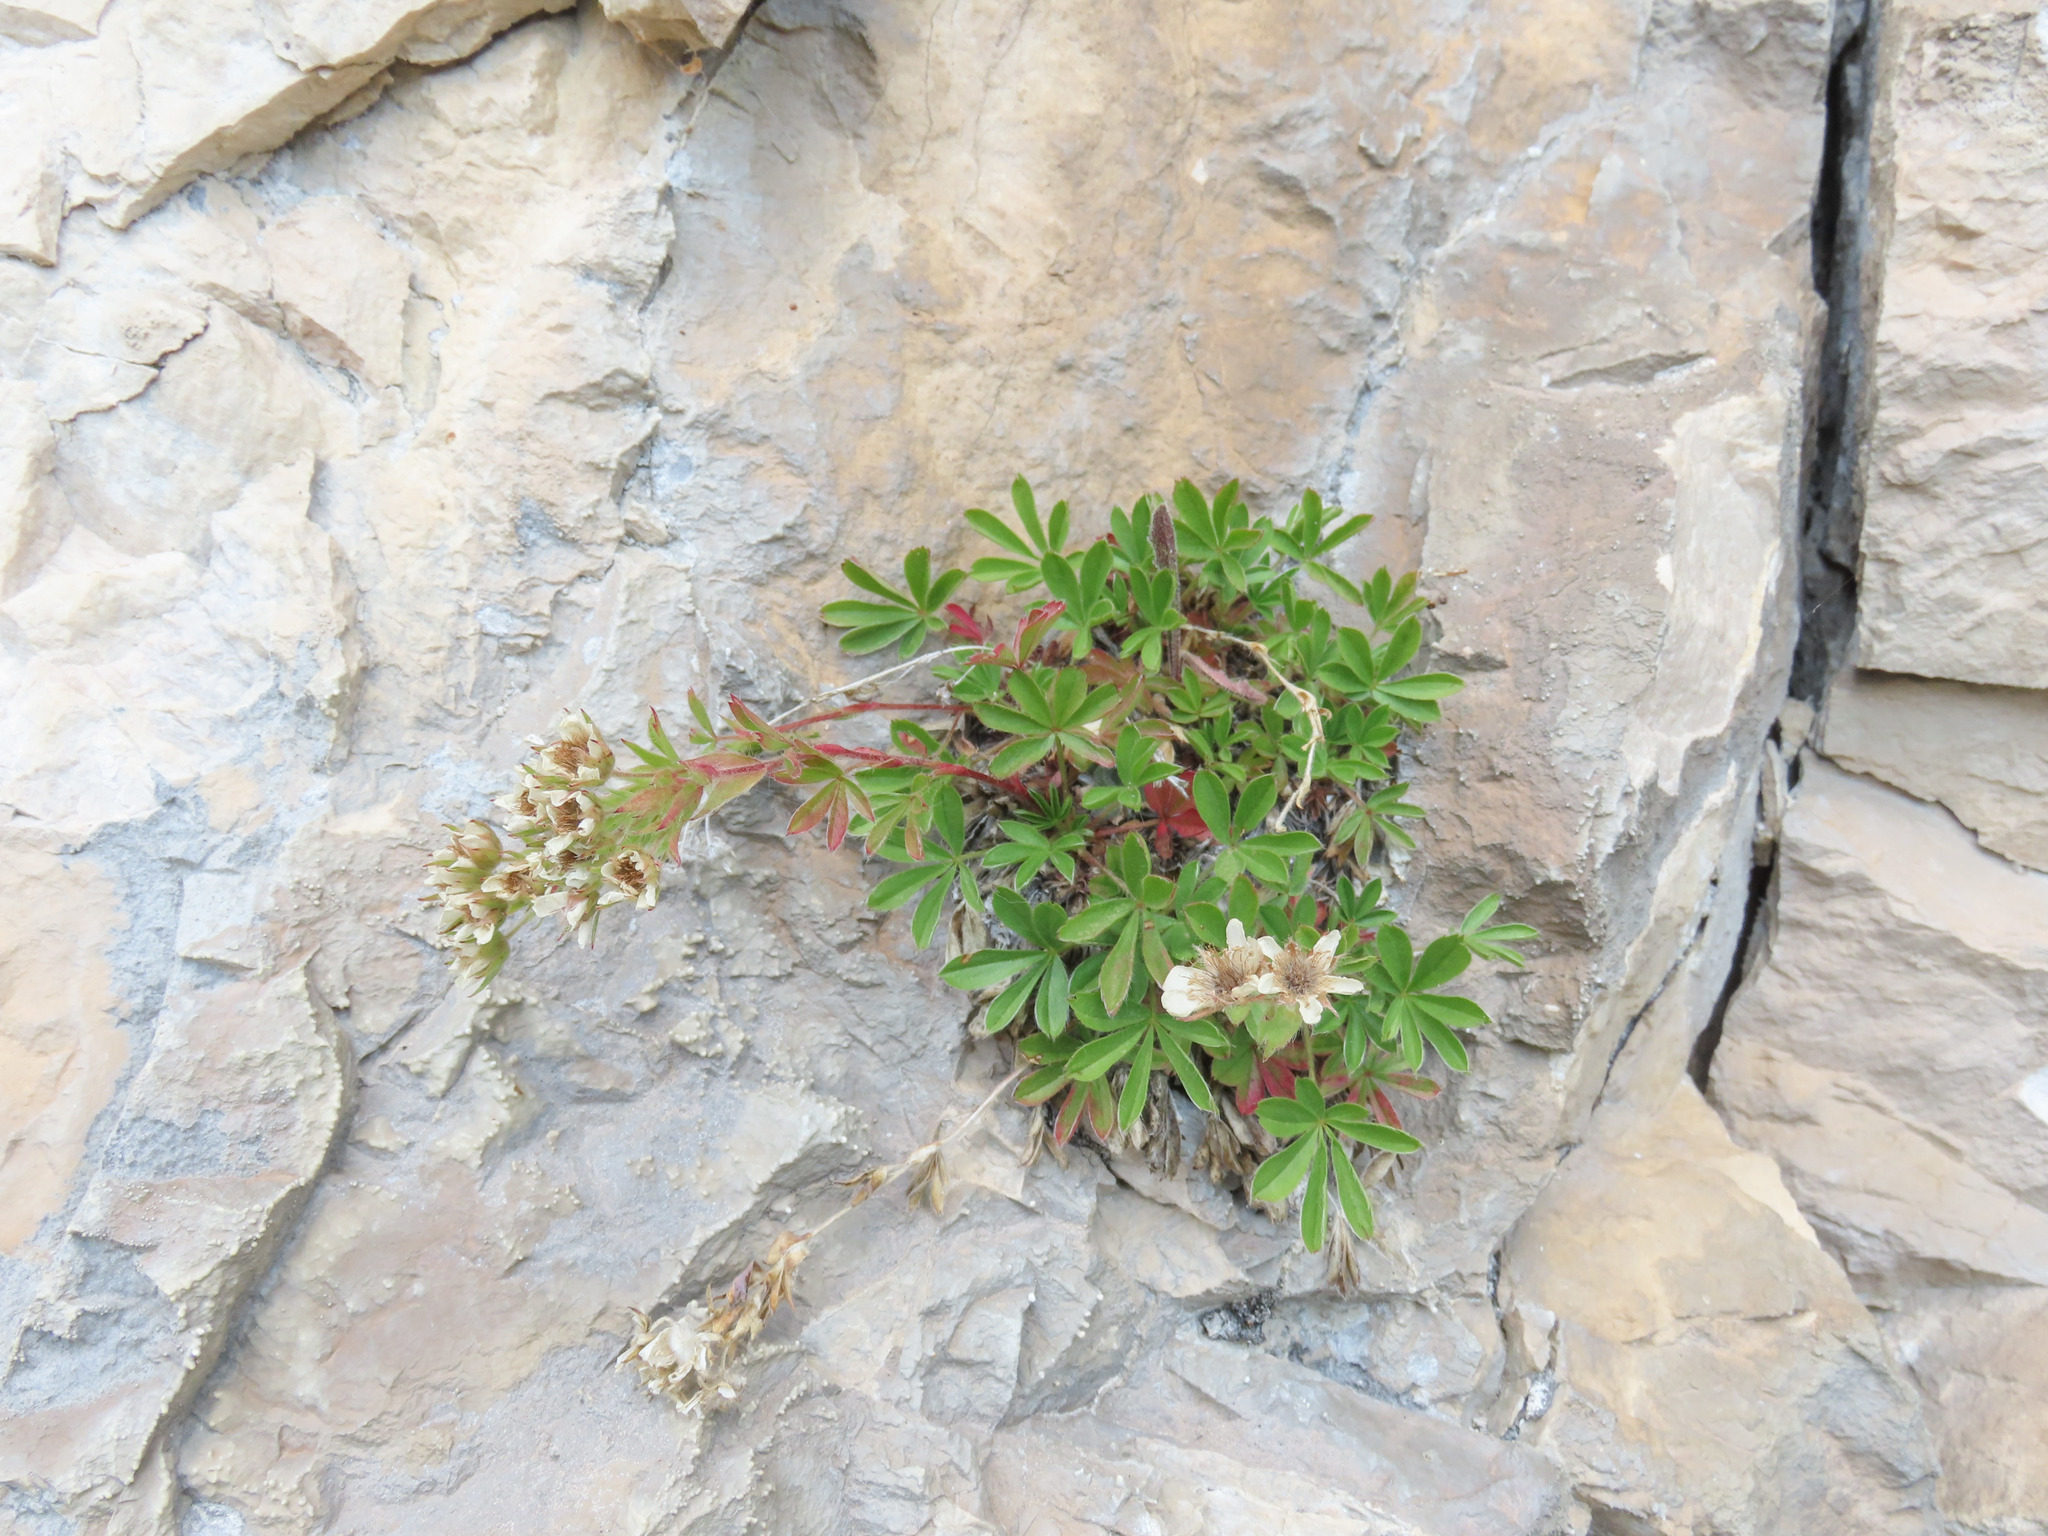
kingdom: Plantae
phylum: Tracheophyta
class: Magnoliopsida
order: Rosales
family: Rosaceae
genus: Potentilla
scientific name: Potentilla caulescens
